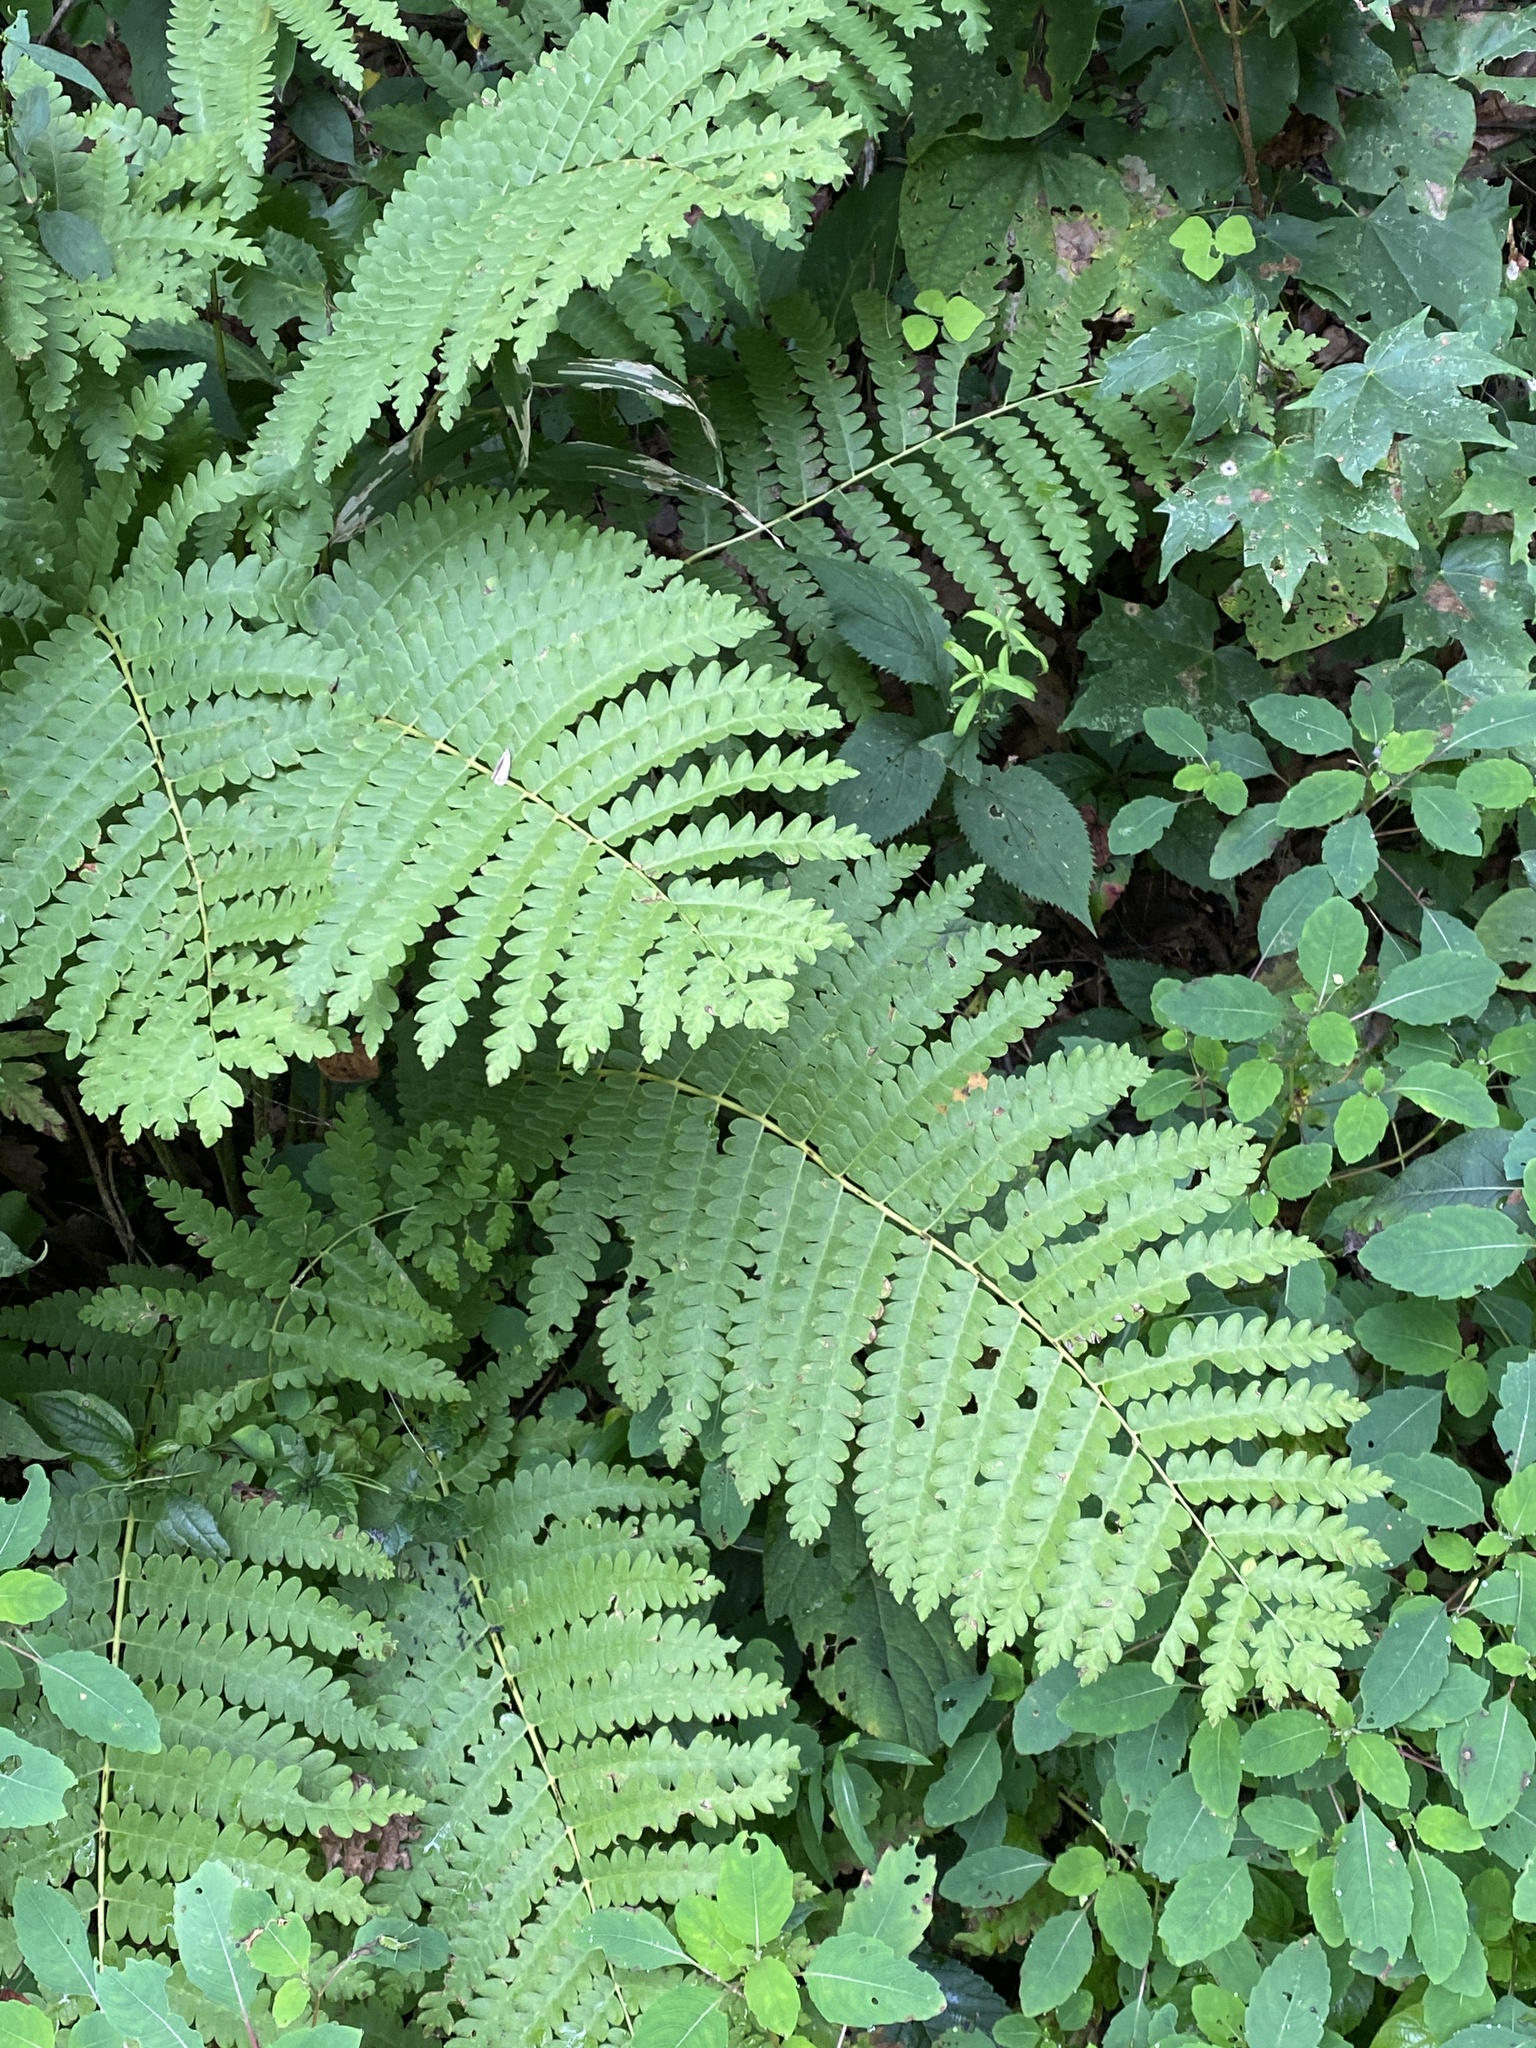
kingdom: Plantae
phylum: Tracheophyta
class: Polypodiopsida
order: Osmundales
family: Osmundaceae
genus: Claytosmunda
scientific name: Claytosmunda claytoniana
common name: Clayton's fern
